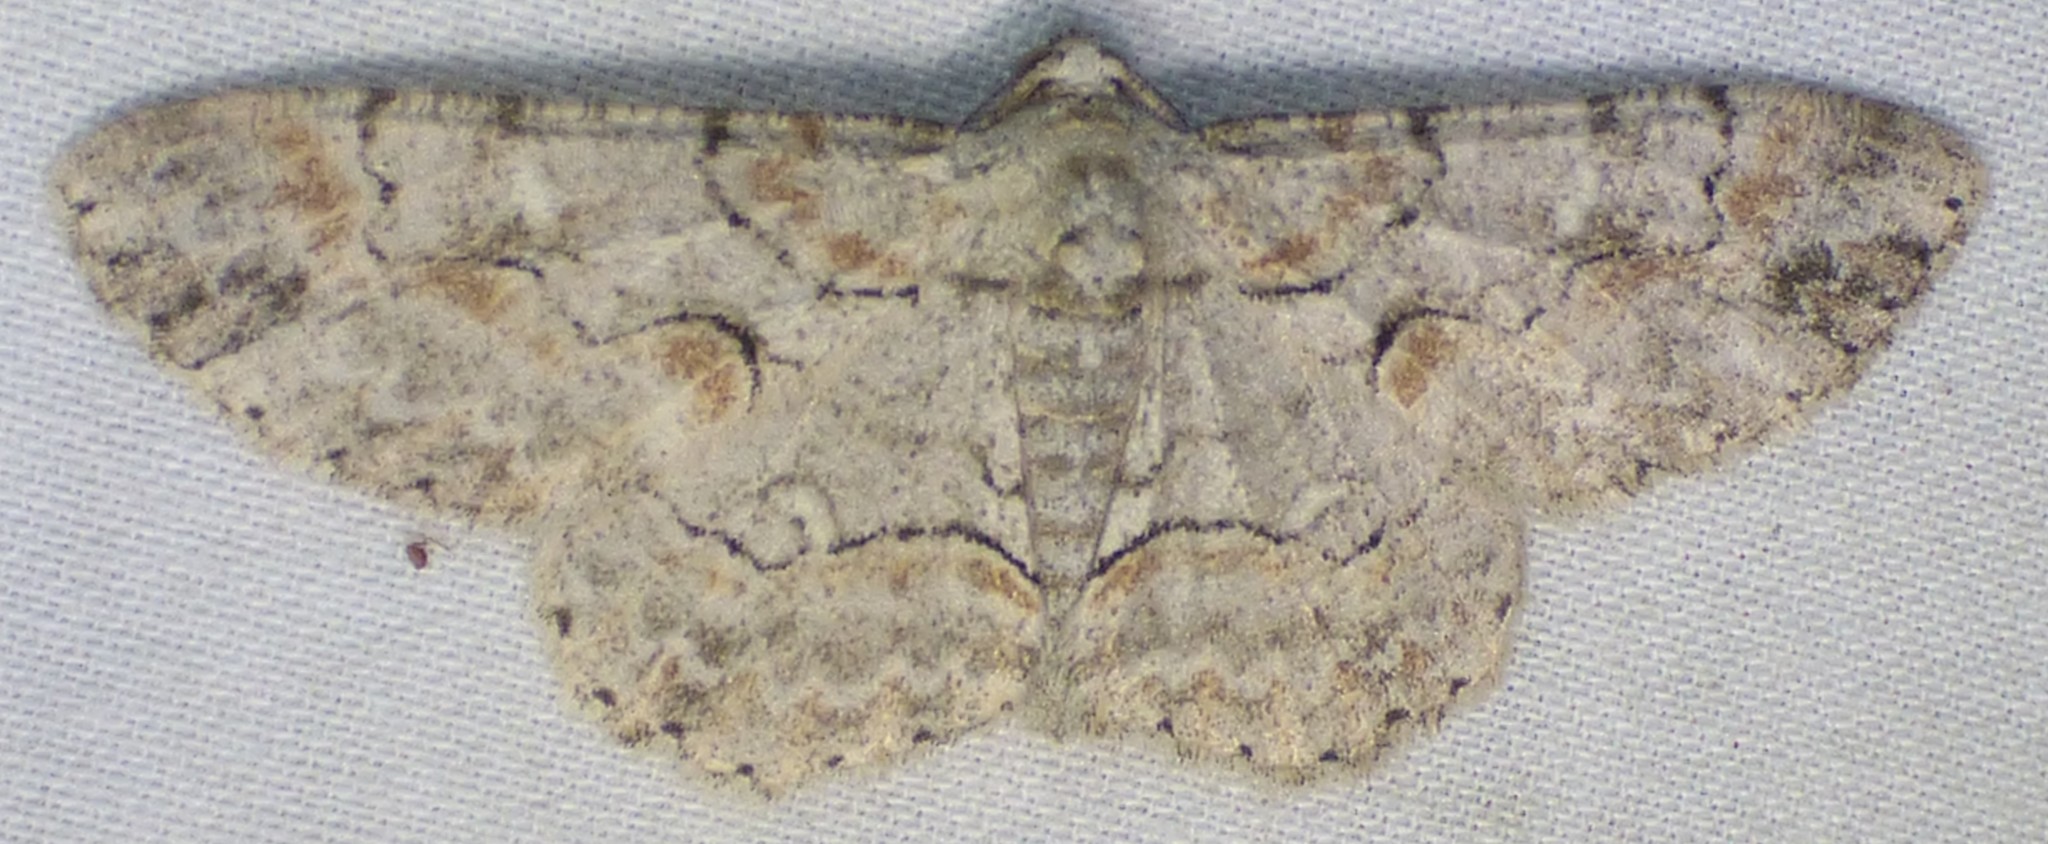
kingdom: Animalia
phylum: Arthropoda
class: Insecta
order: Lepidoptera
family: Geometridae
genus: Iridopsis
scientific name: Iridopsis defectaria
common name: Brown-shaded gray
